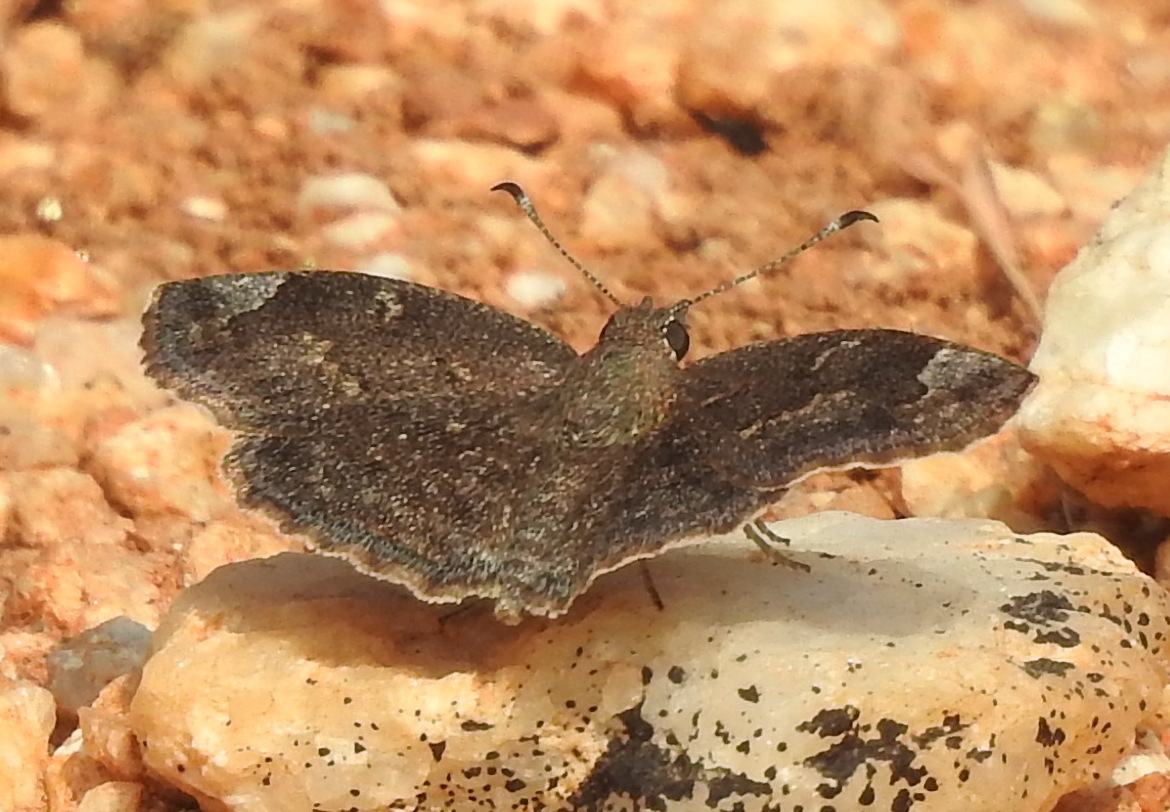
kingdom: Animalia
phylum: Arthropoda
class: Insecta
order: Lepidoptera
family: Hesperiidae
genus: Sarangesa
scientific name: Sarangesa purendra
